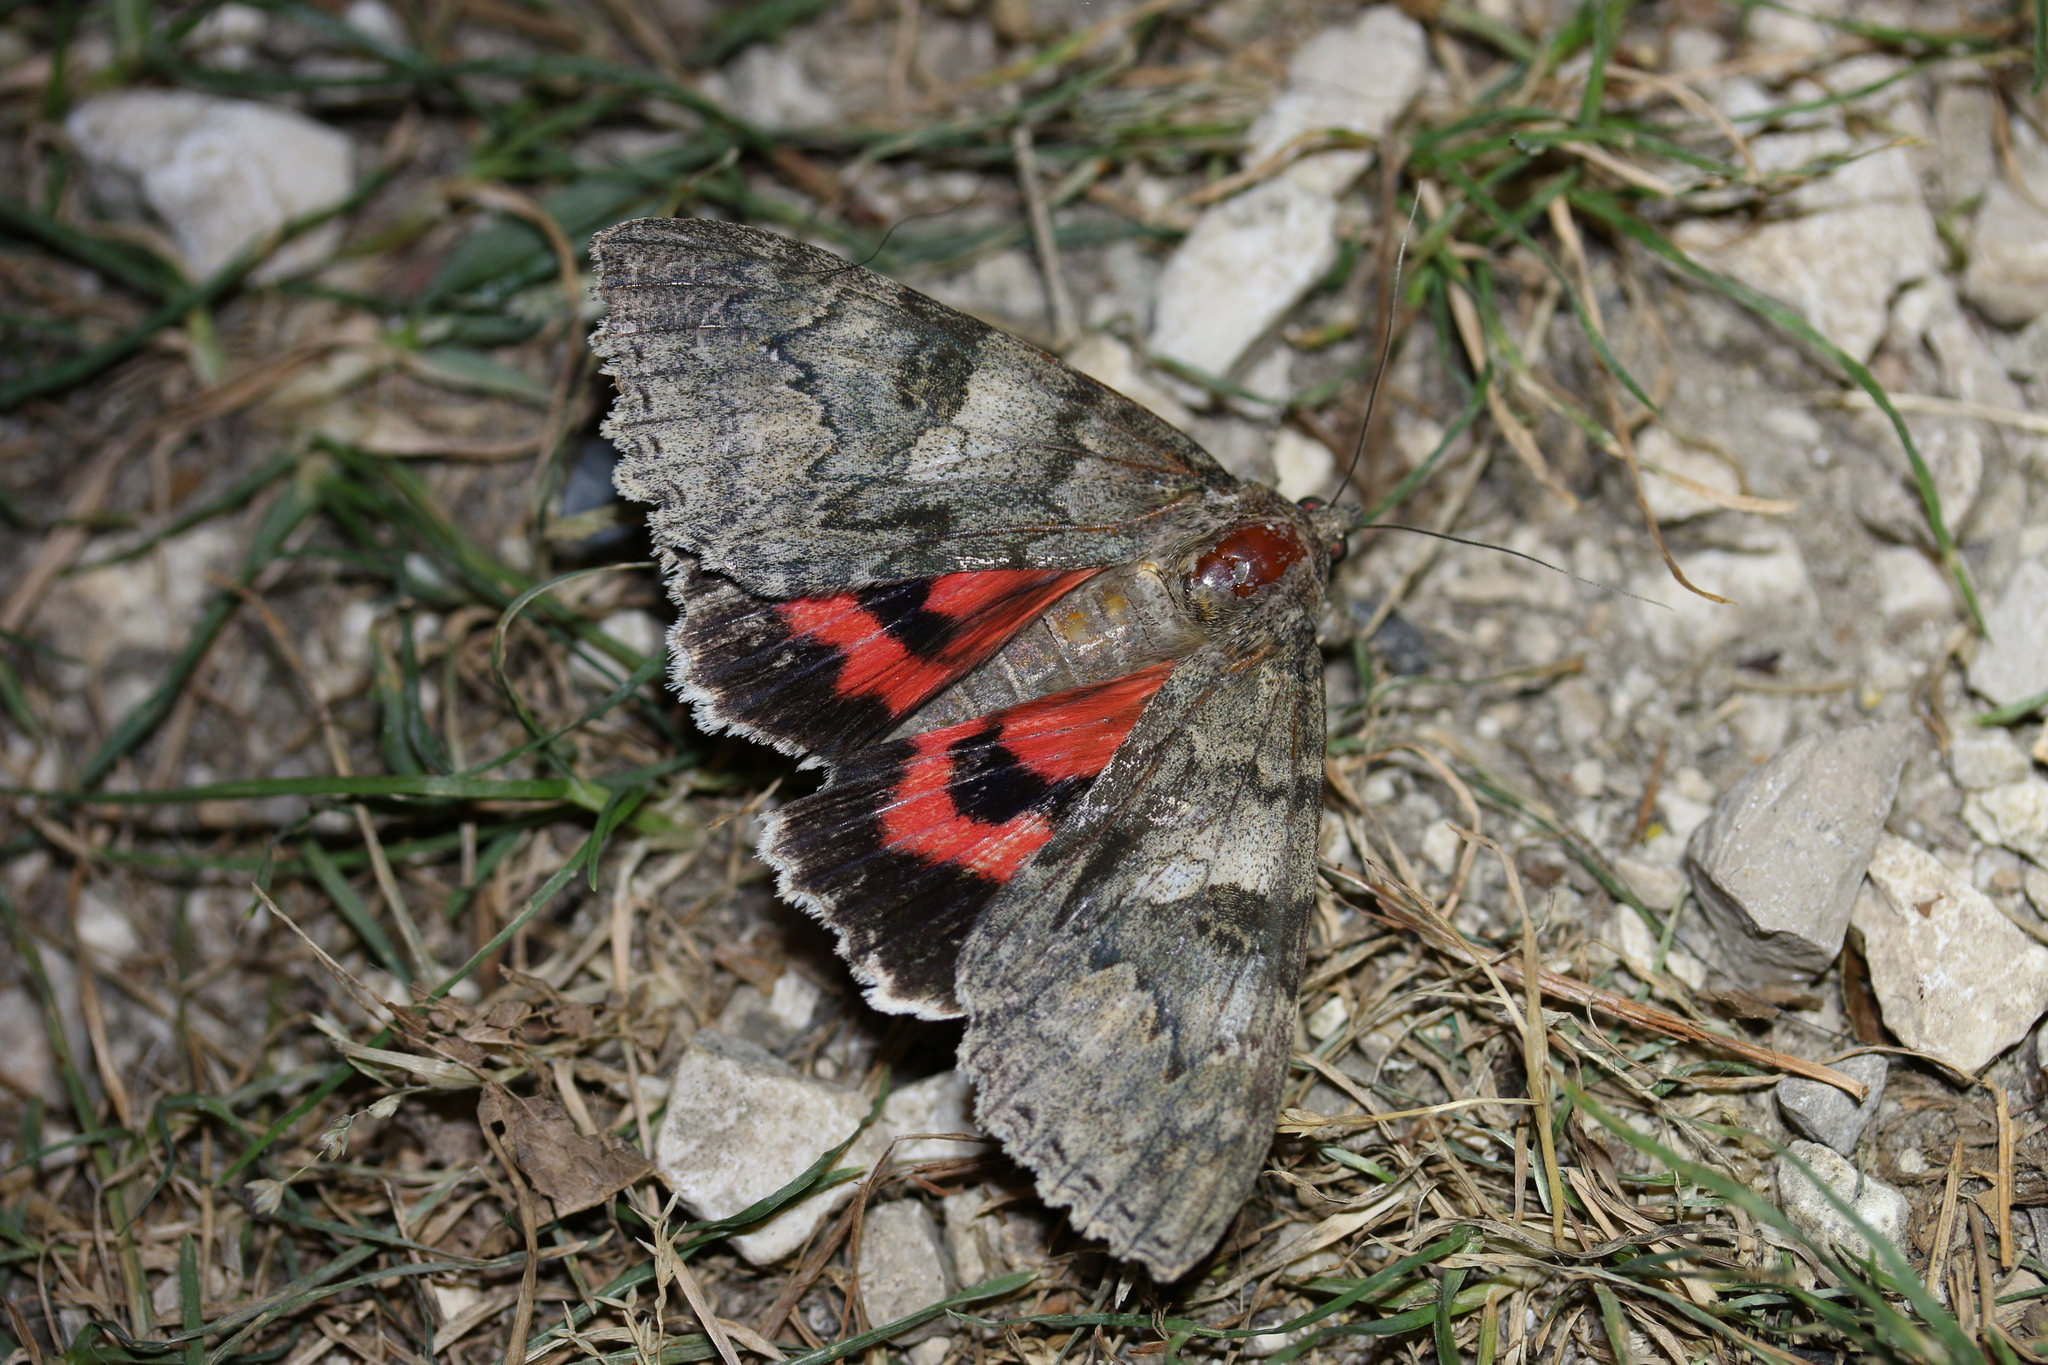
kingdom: Animalia
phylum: Arthropoda
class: Insecta
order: Lepidoptera
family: Erebidae
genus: Catocala
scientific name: Catocala nupta
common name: Red underwing
